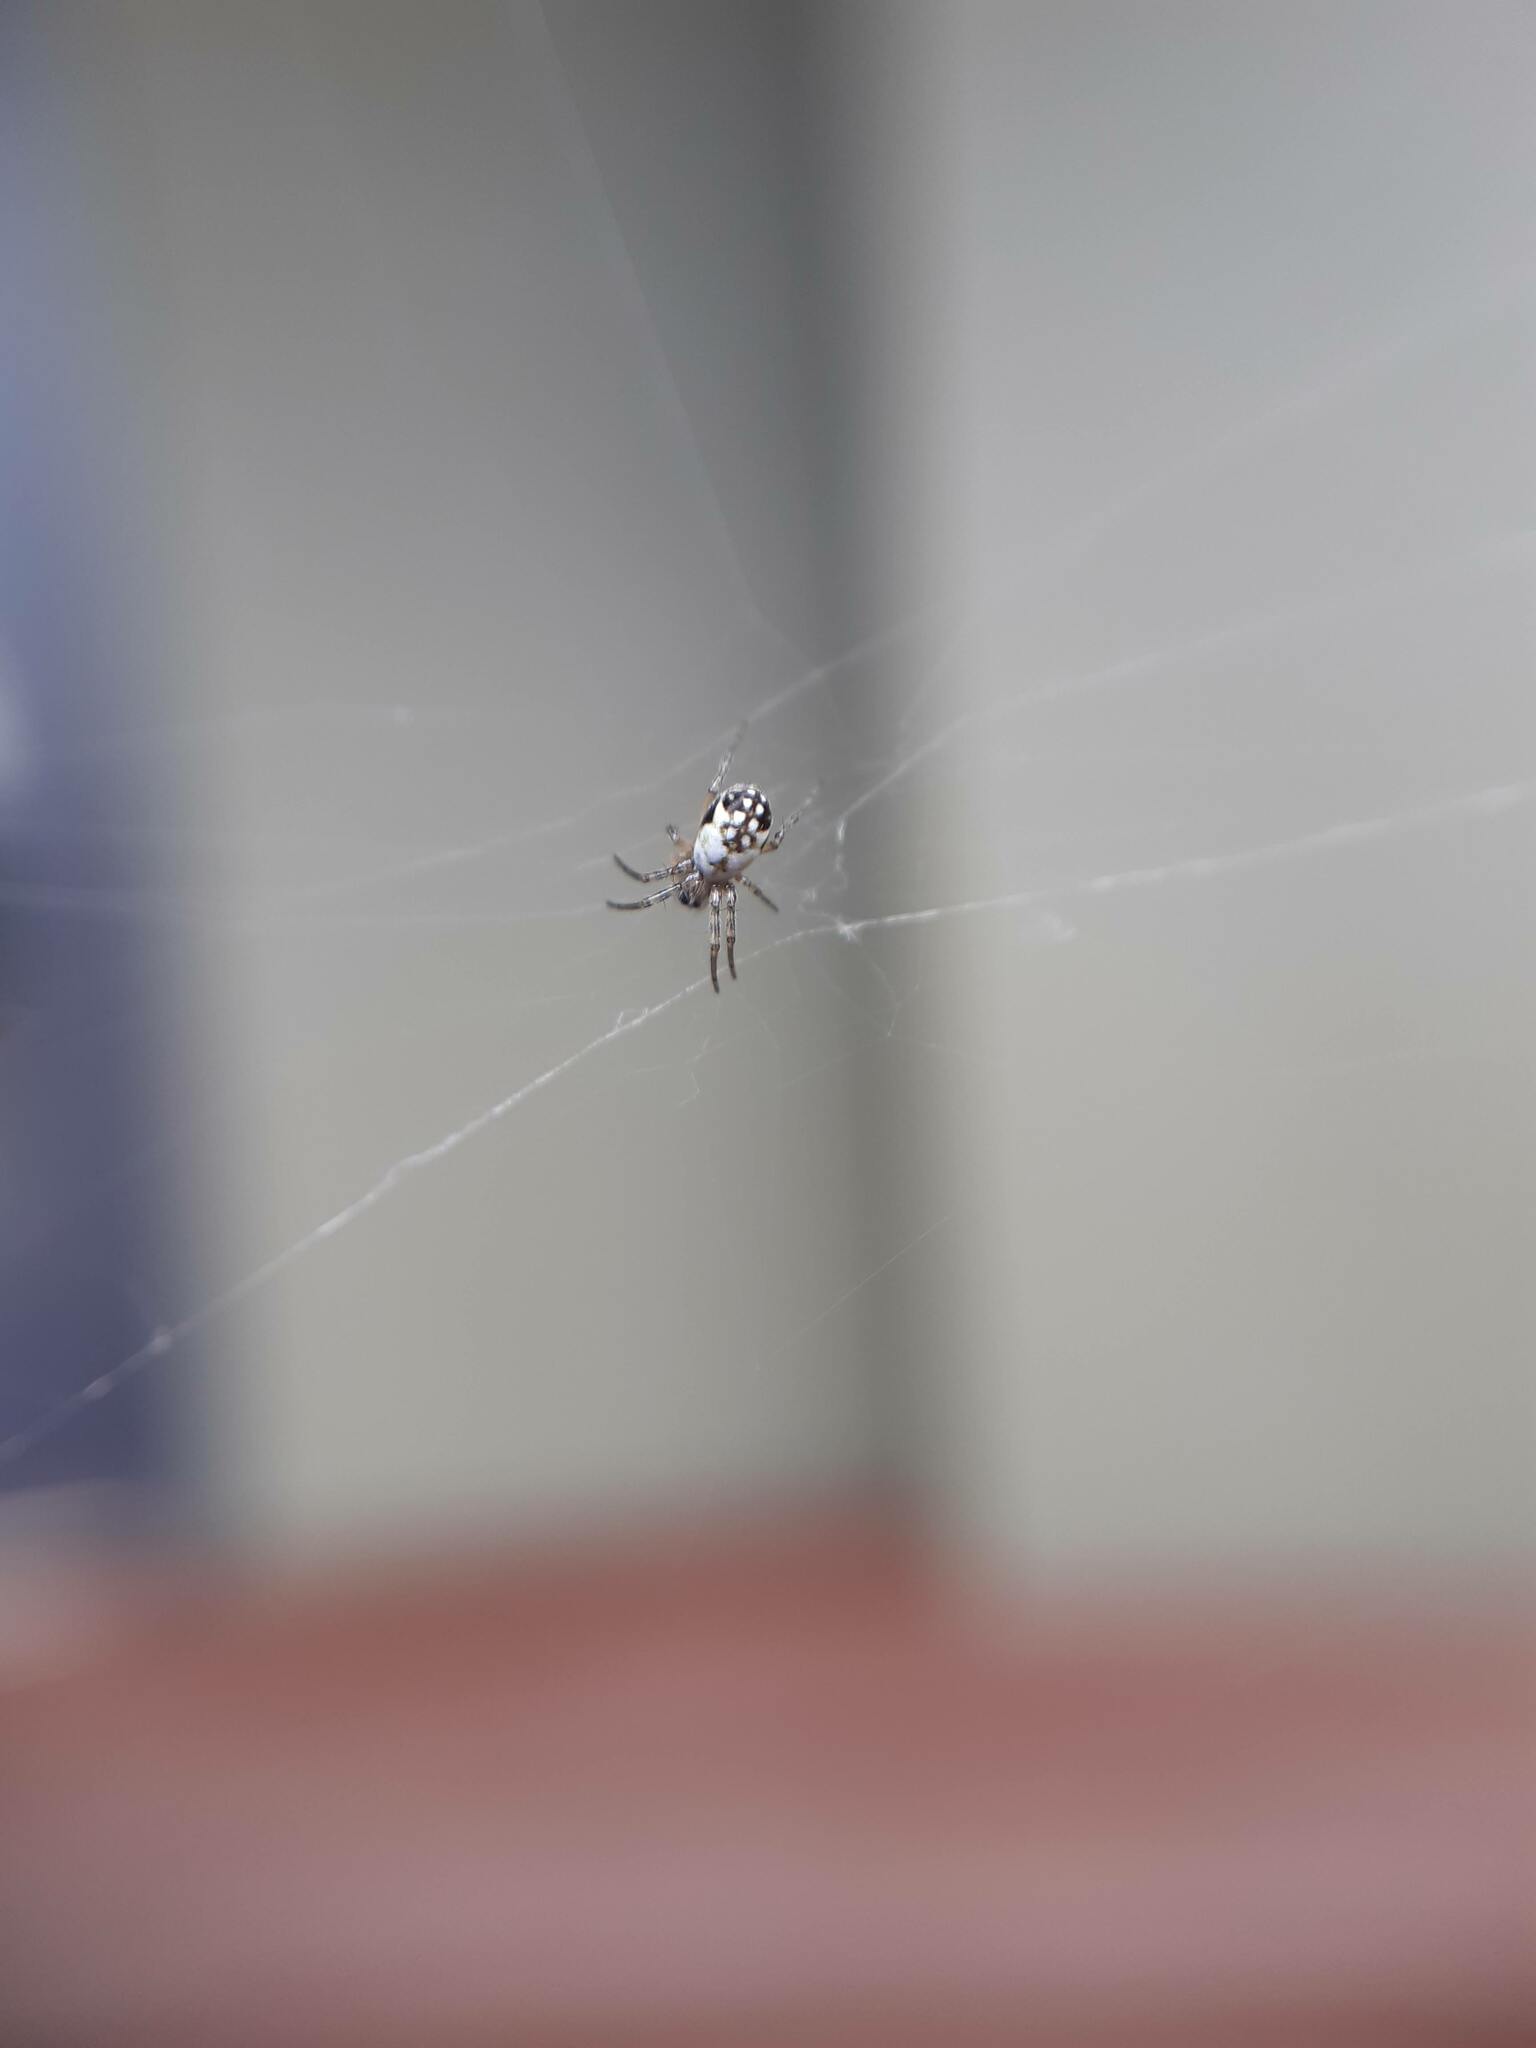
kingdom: Animalia
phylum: Arthropoda
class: Arachnida
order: Araneae
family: Araneidae
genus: Trichonephila
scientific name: Trichonephila edulis
